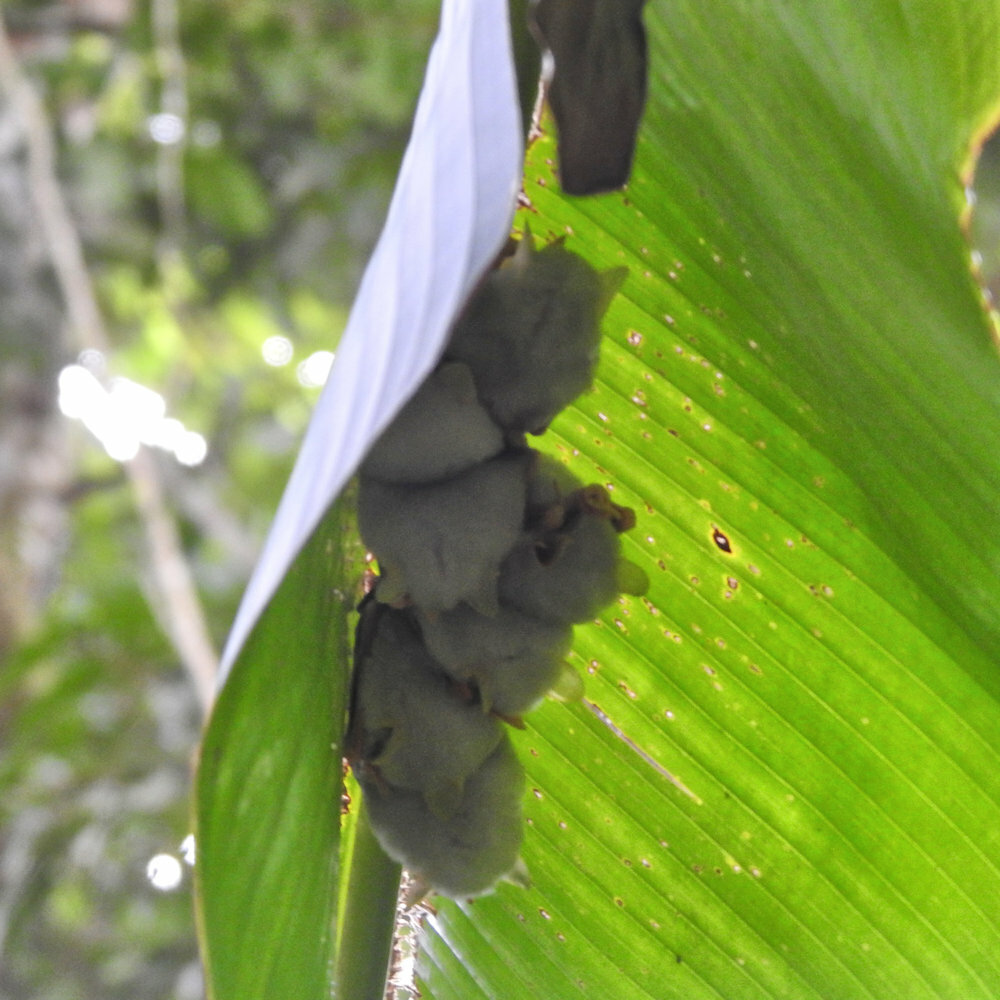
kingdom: Animalia
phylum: Chordata
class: Mammalia
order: Chiroptera
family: Phyllostomidae
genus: Ectophylla
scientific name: Ectophylla alba
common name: Honduran white bat
